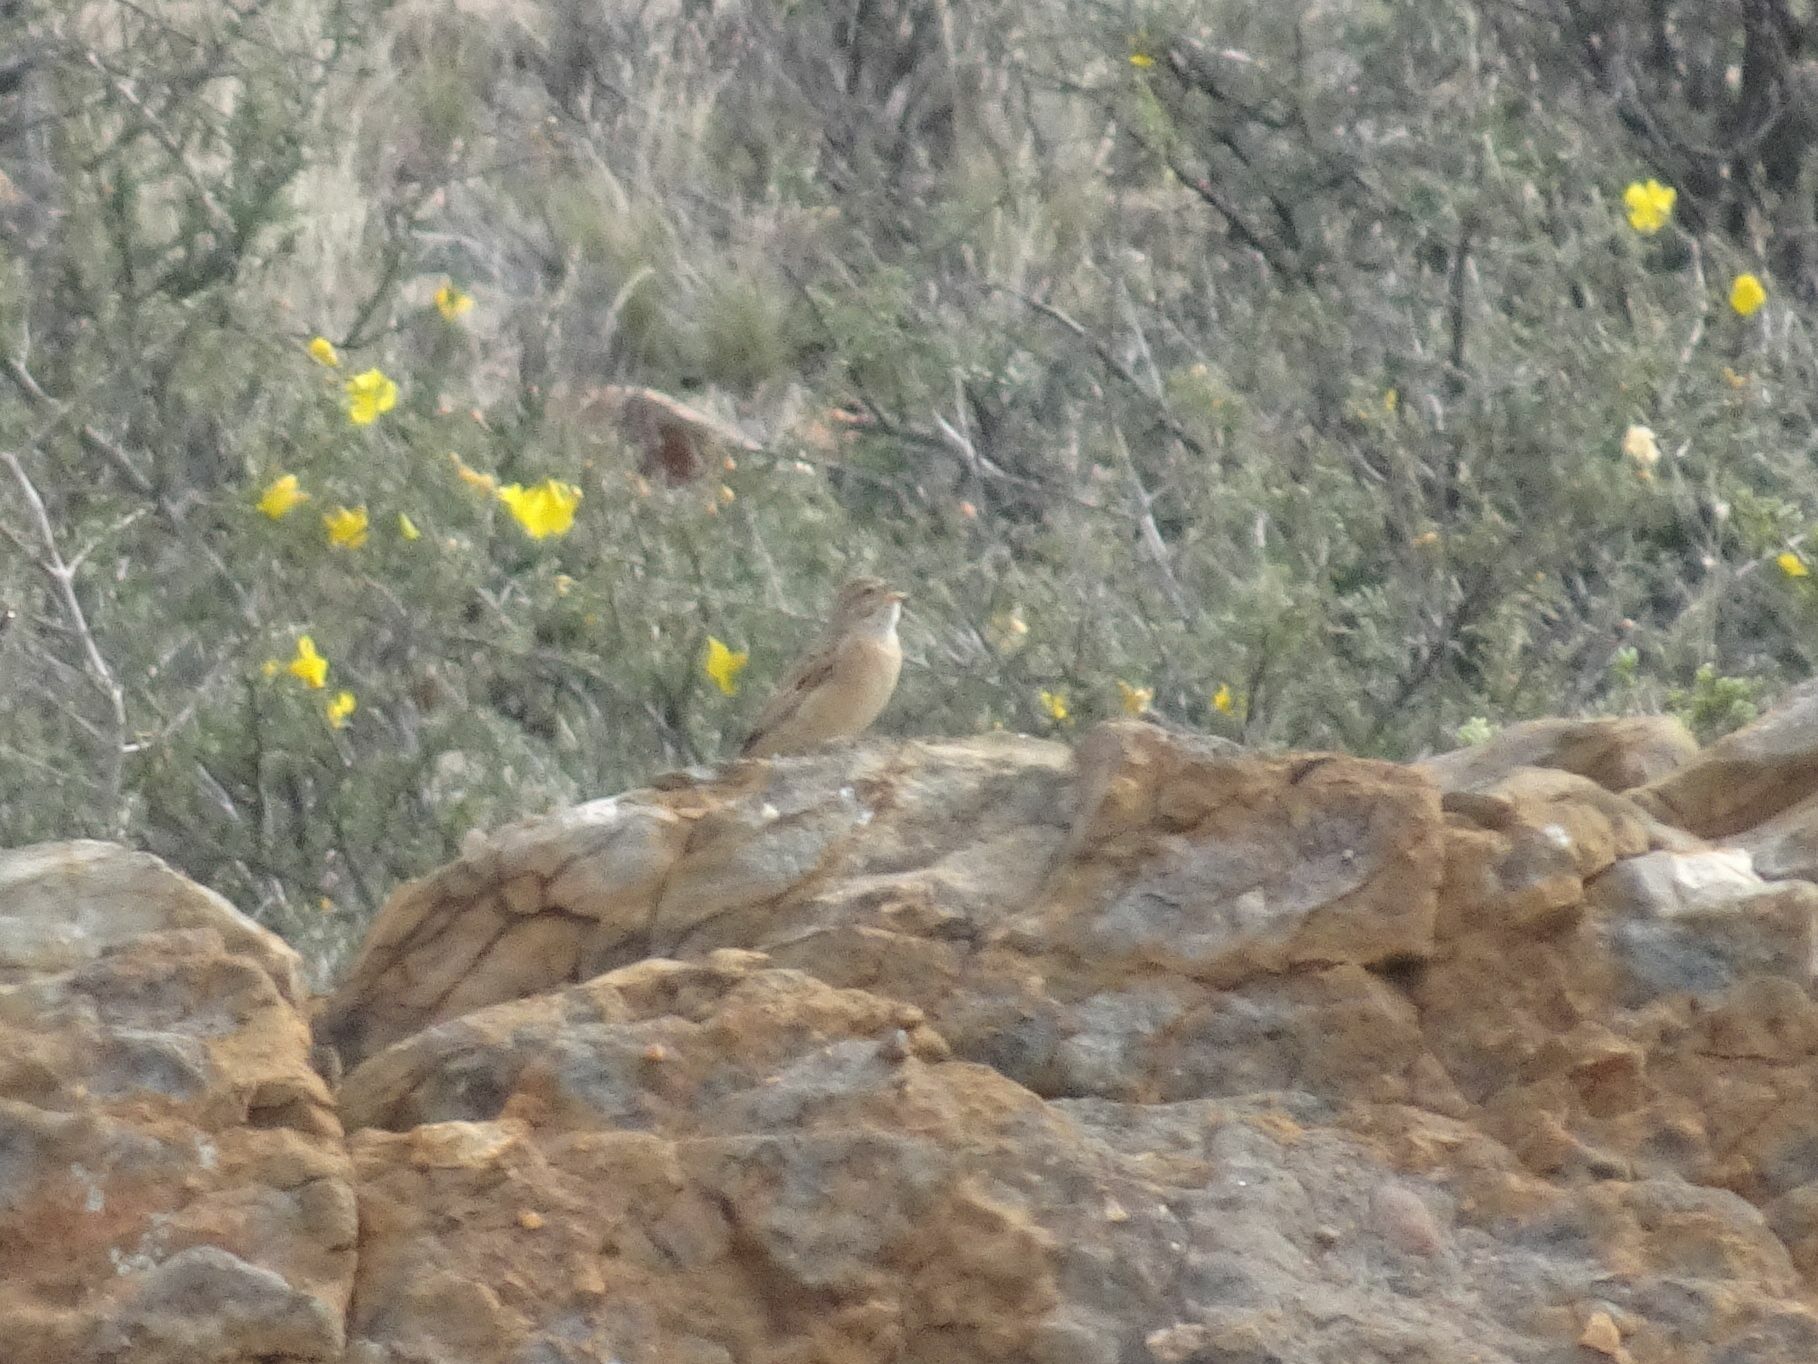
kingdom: Animalia
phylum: Chordata
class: Aves
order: Passeriformes
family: Emberizidae
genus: Emberiza
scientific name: Emberiza impetuani
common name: Lark-like bunting
